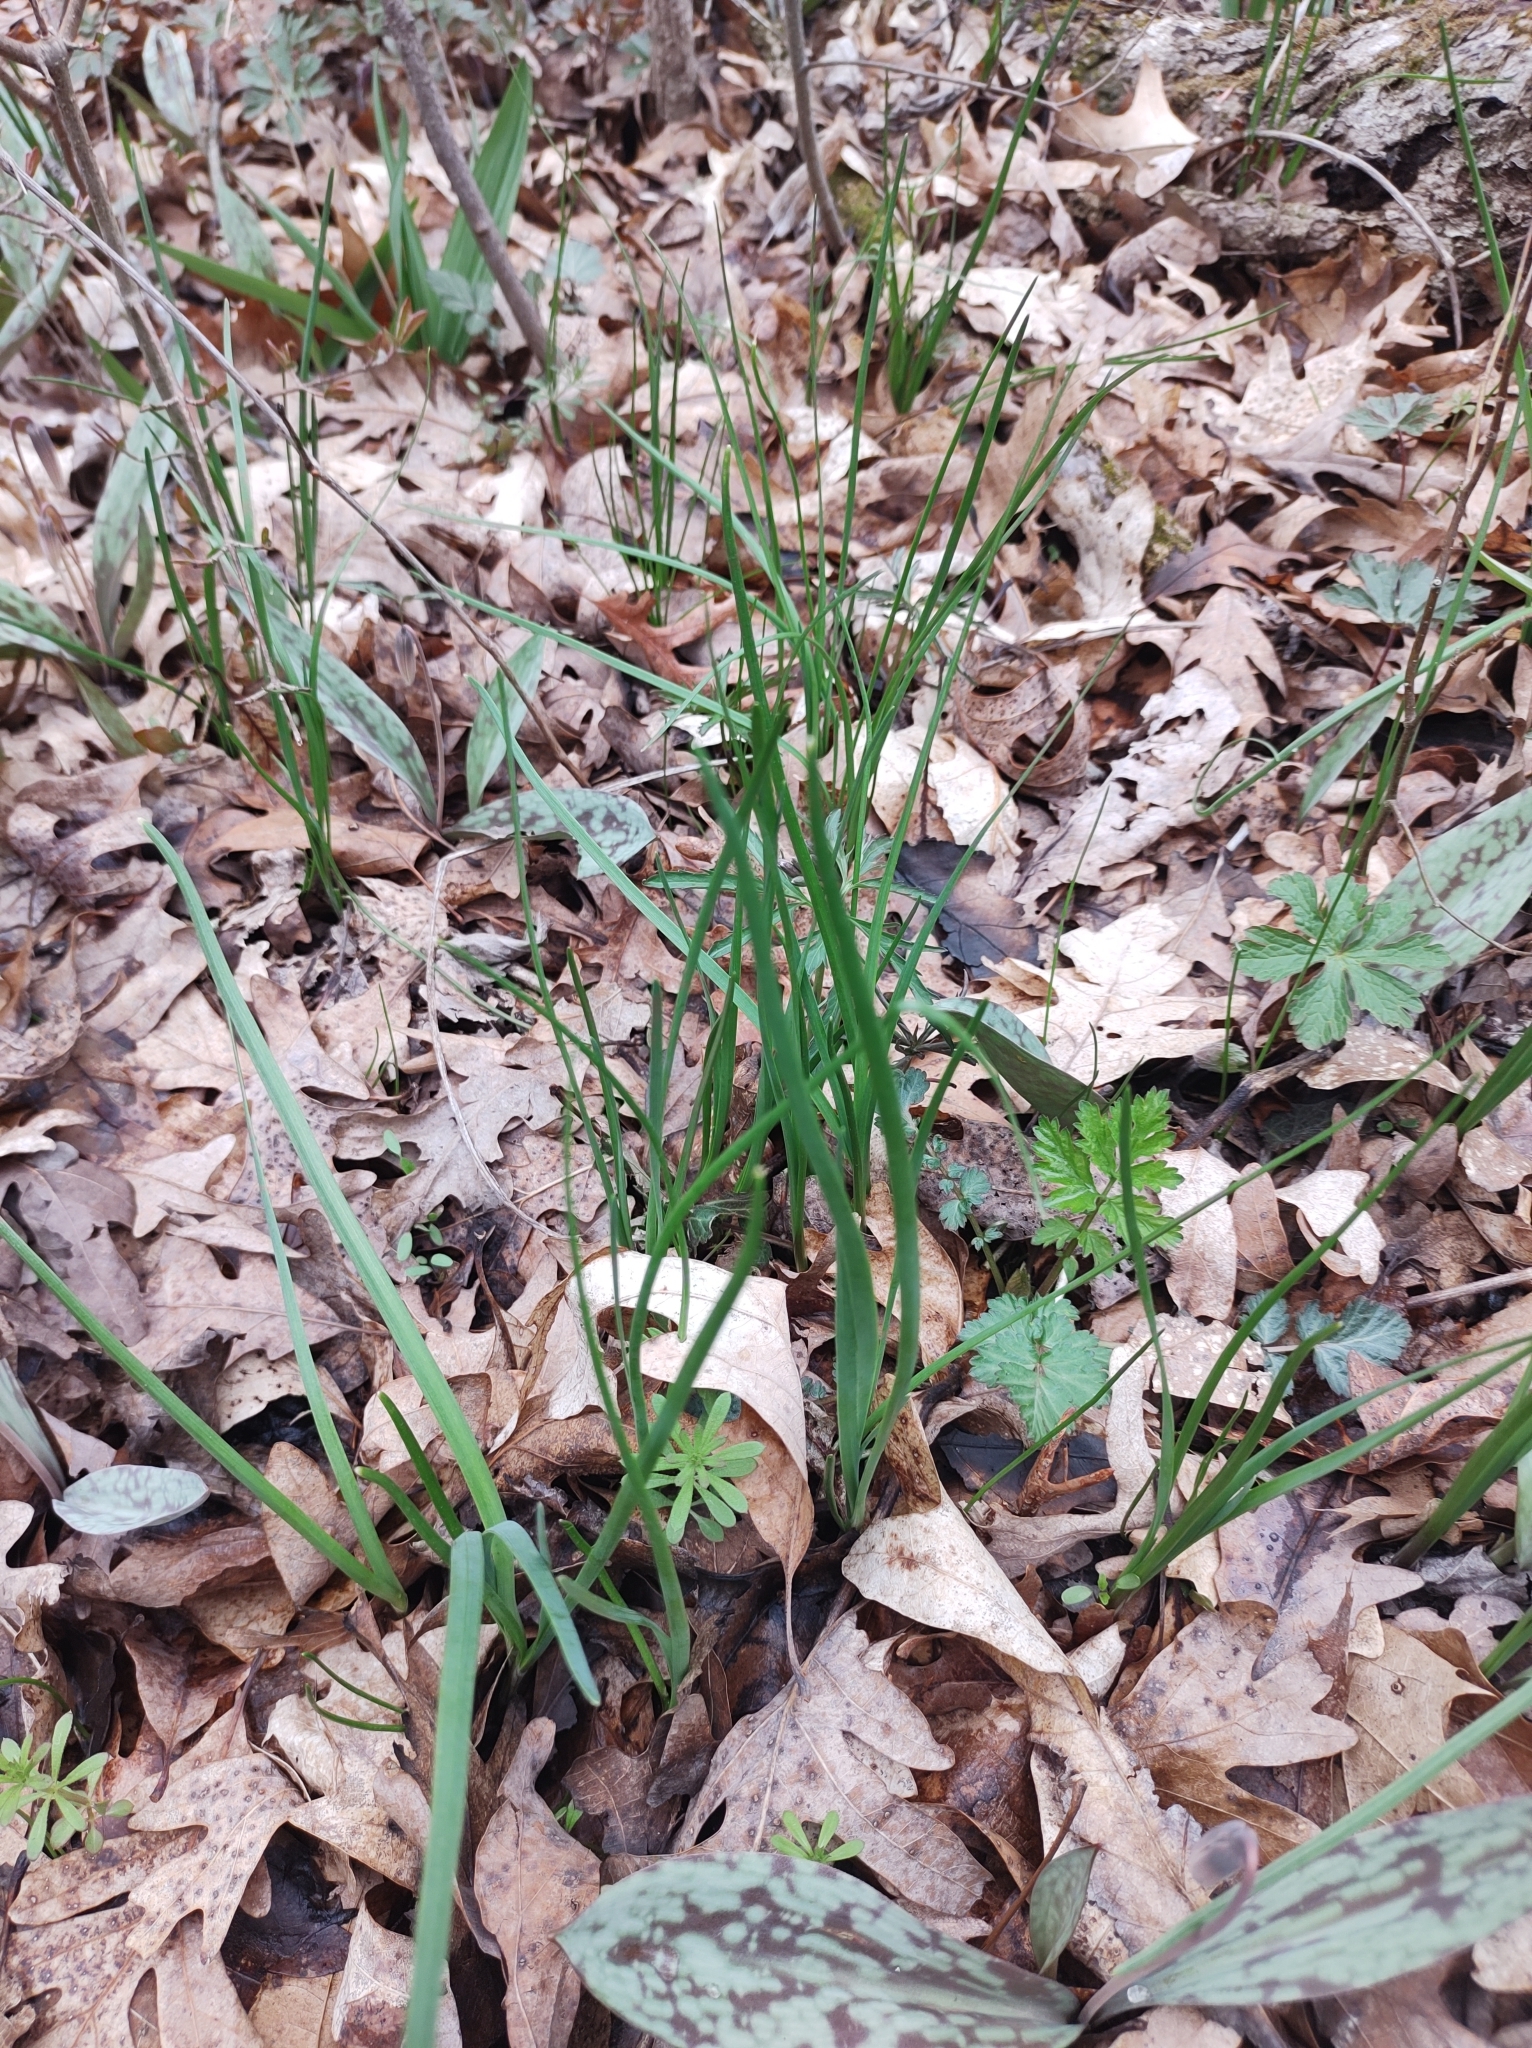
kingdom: Plantae
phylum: Tracheophyta
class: Liliopsida
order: Asparagales
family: Amaryllidaceae
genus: Allium
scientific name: Allium vineale
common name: Crow garlic
